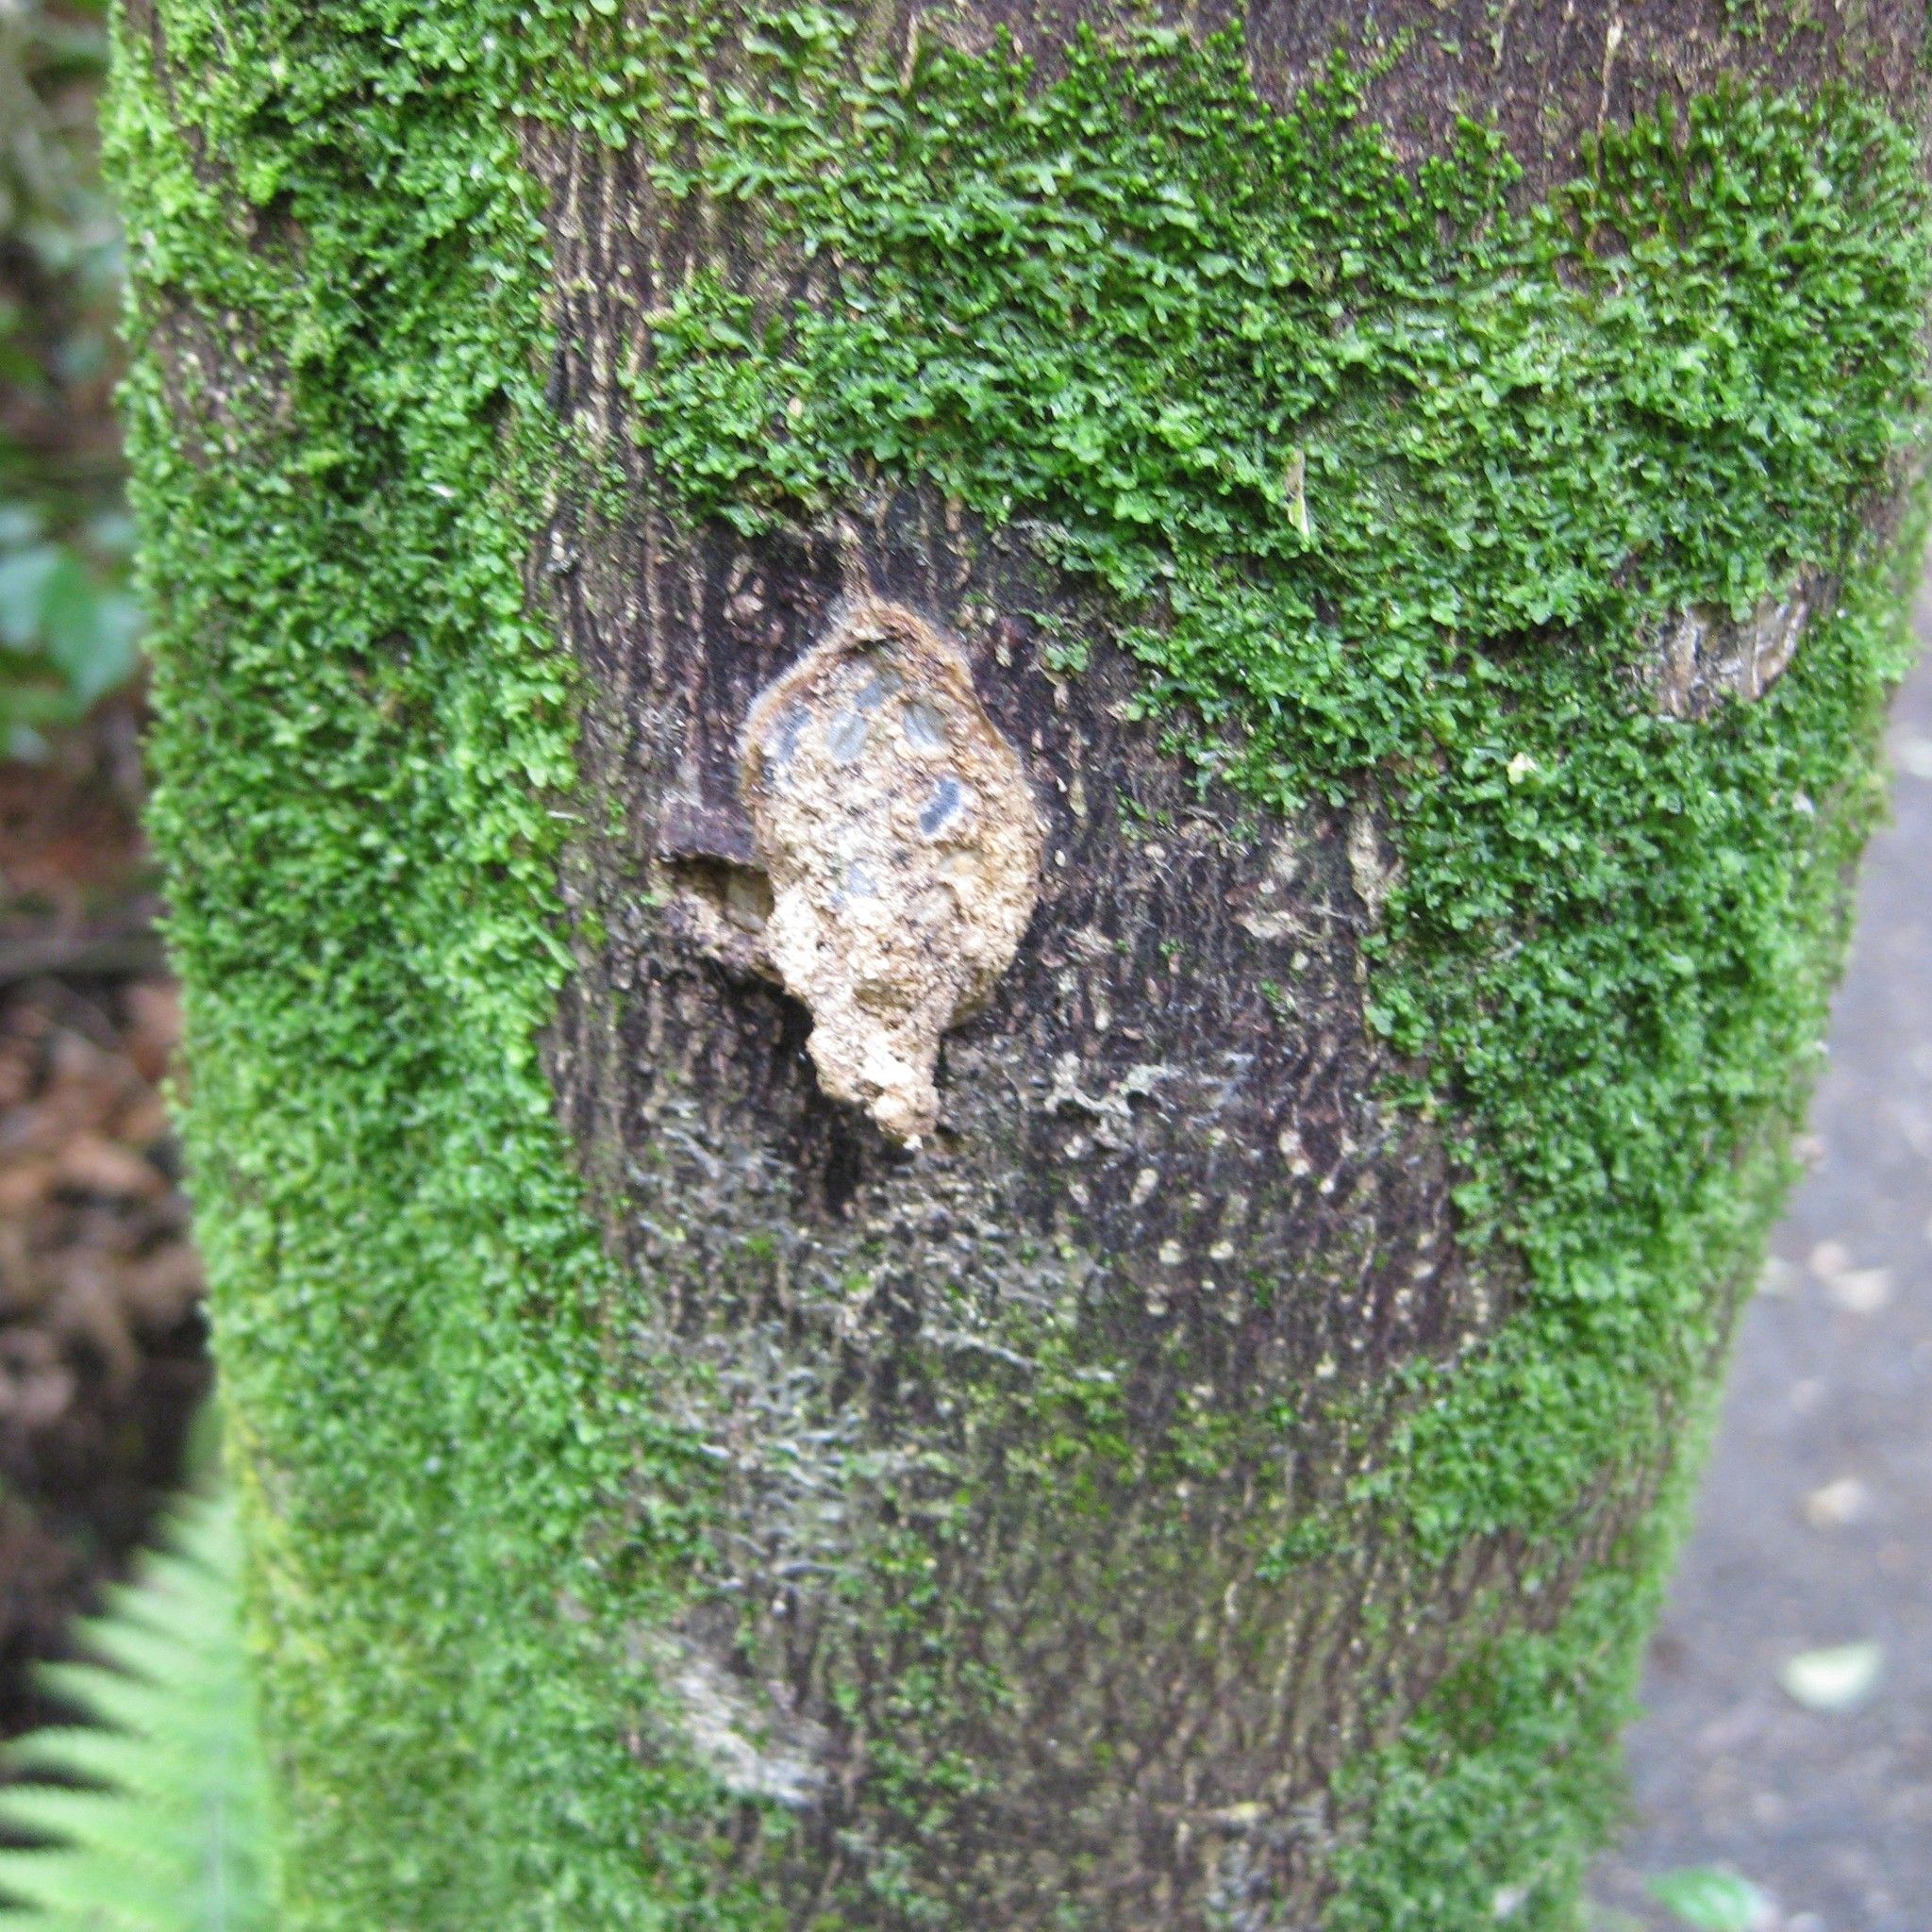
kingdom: Animalia
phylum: Arthropoda
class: Insecta
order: Lepidoptera
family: Hepialidae
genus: Aenetus
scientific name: Aenetus virescens
